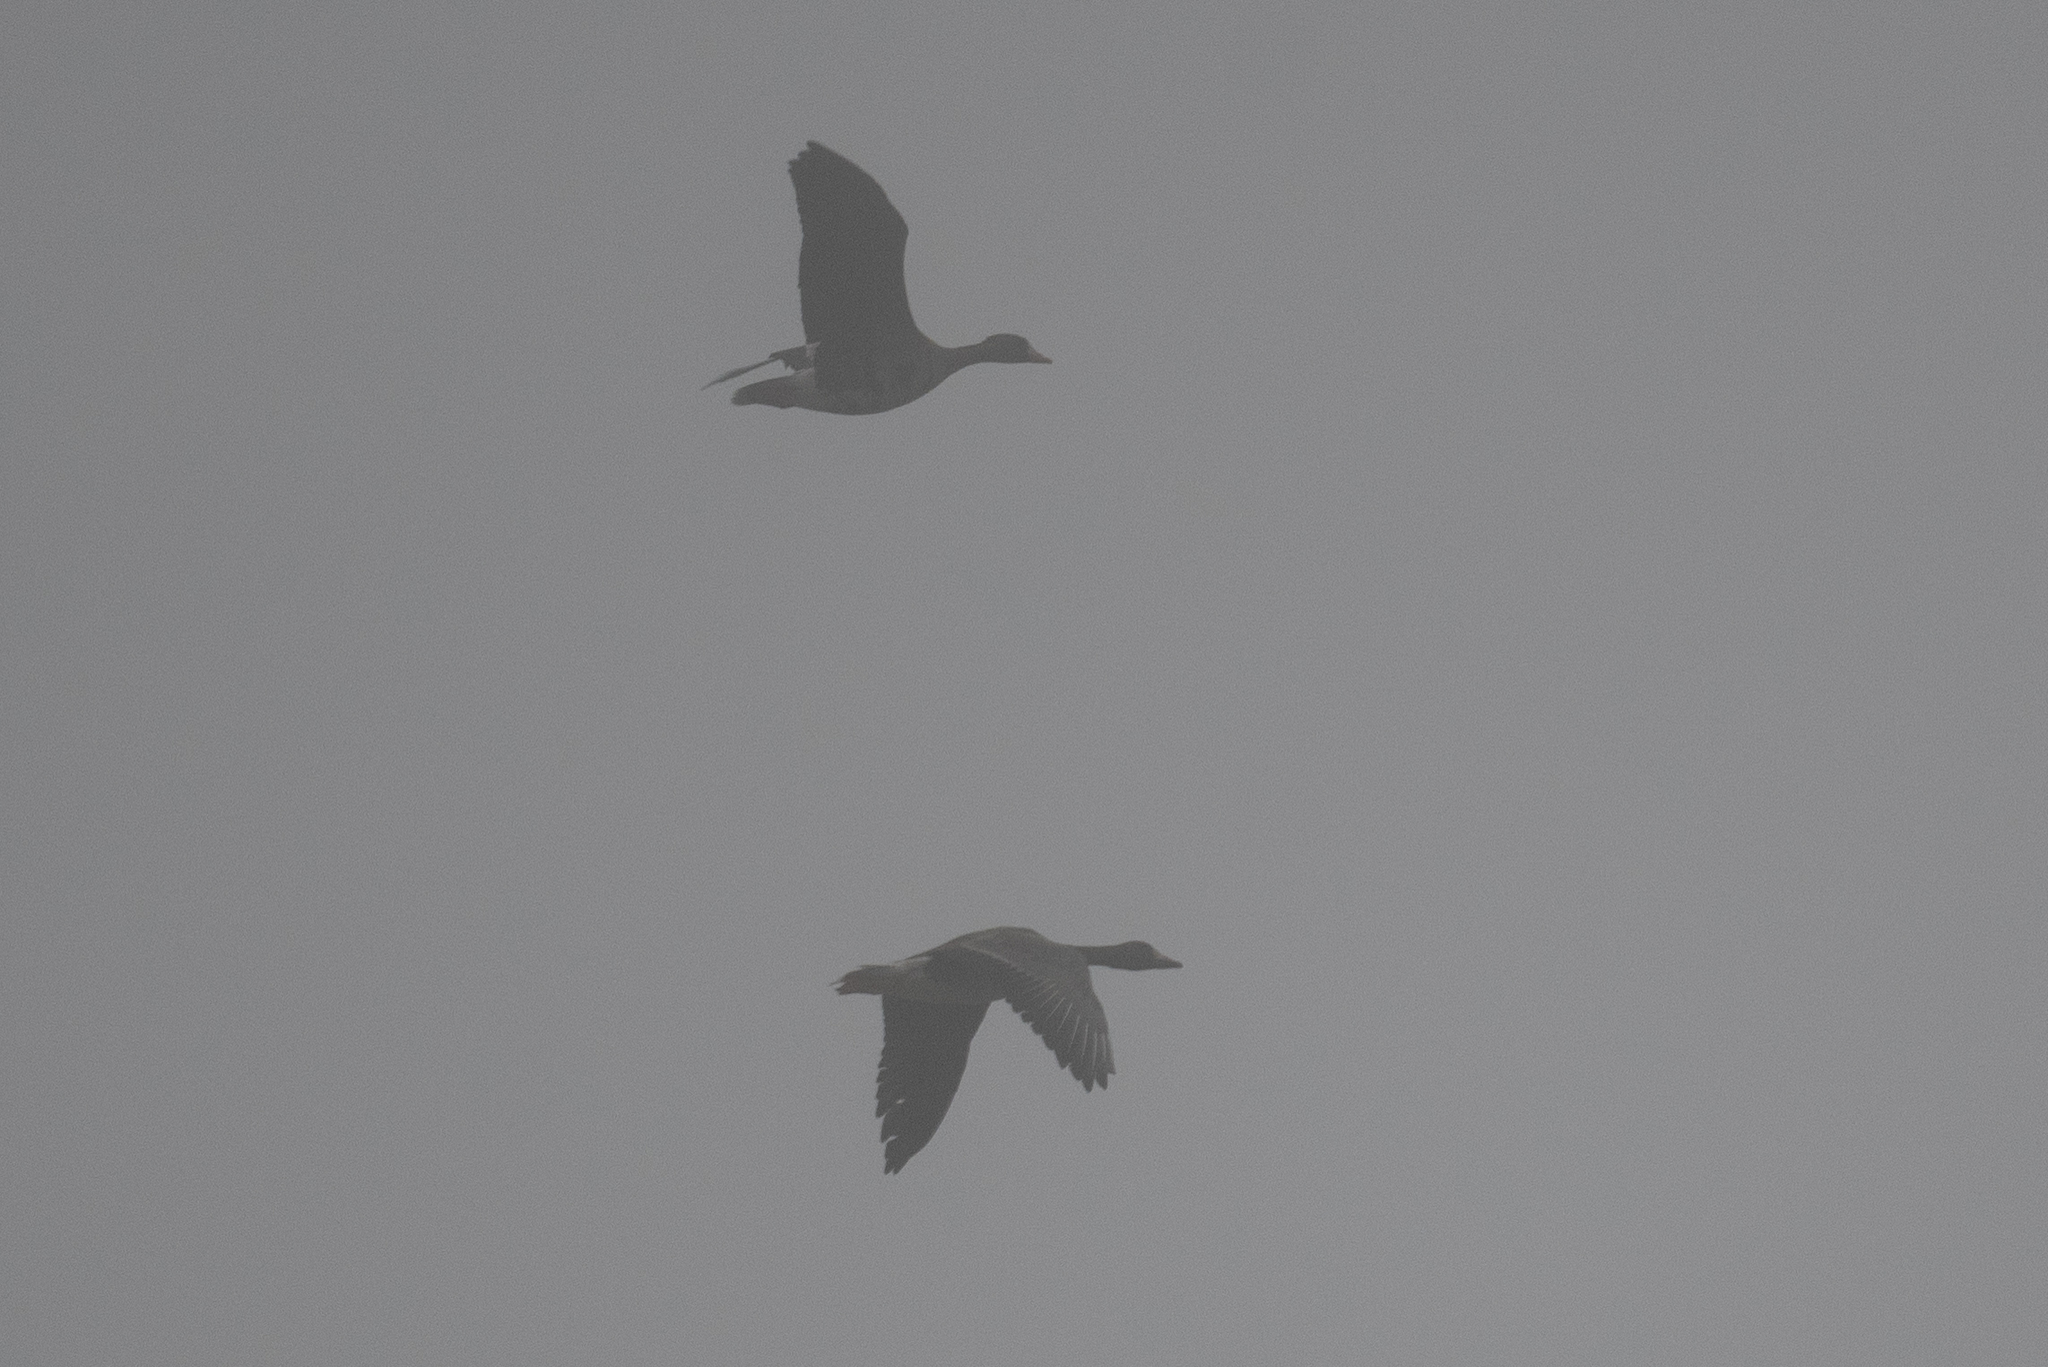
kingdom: Animalia
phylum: Chordata
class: Aves
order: Anseriformes
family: Anatidae
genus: Anser
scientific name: Anser albifrons
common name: Greater white-fronted goose
